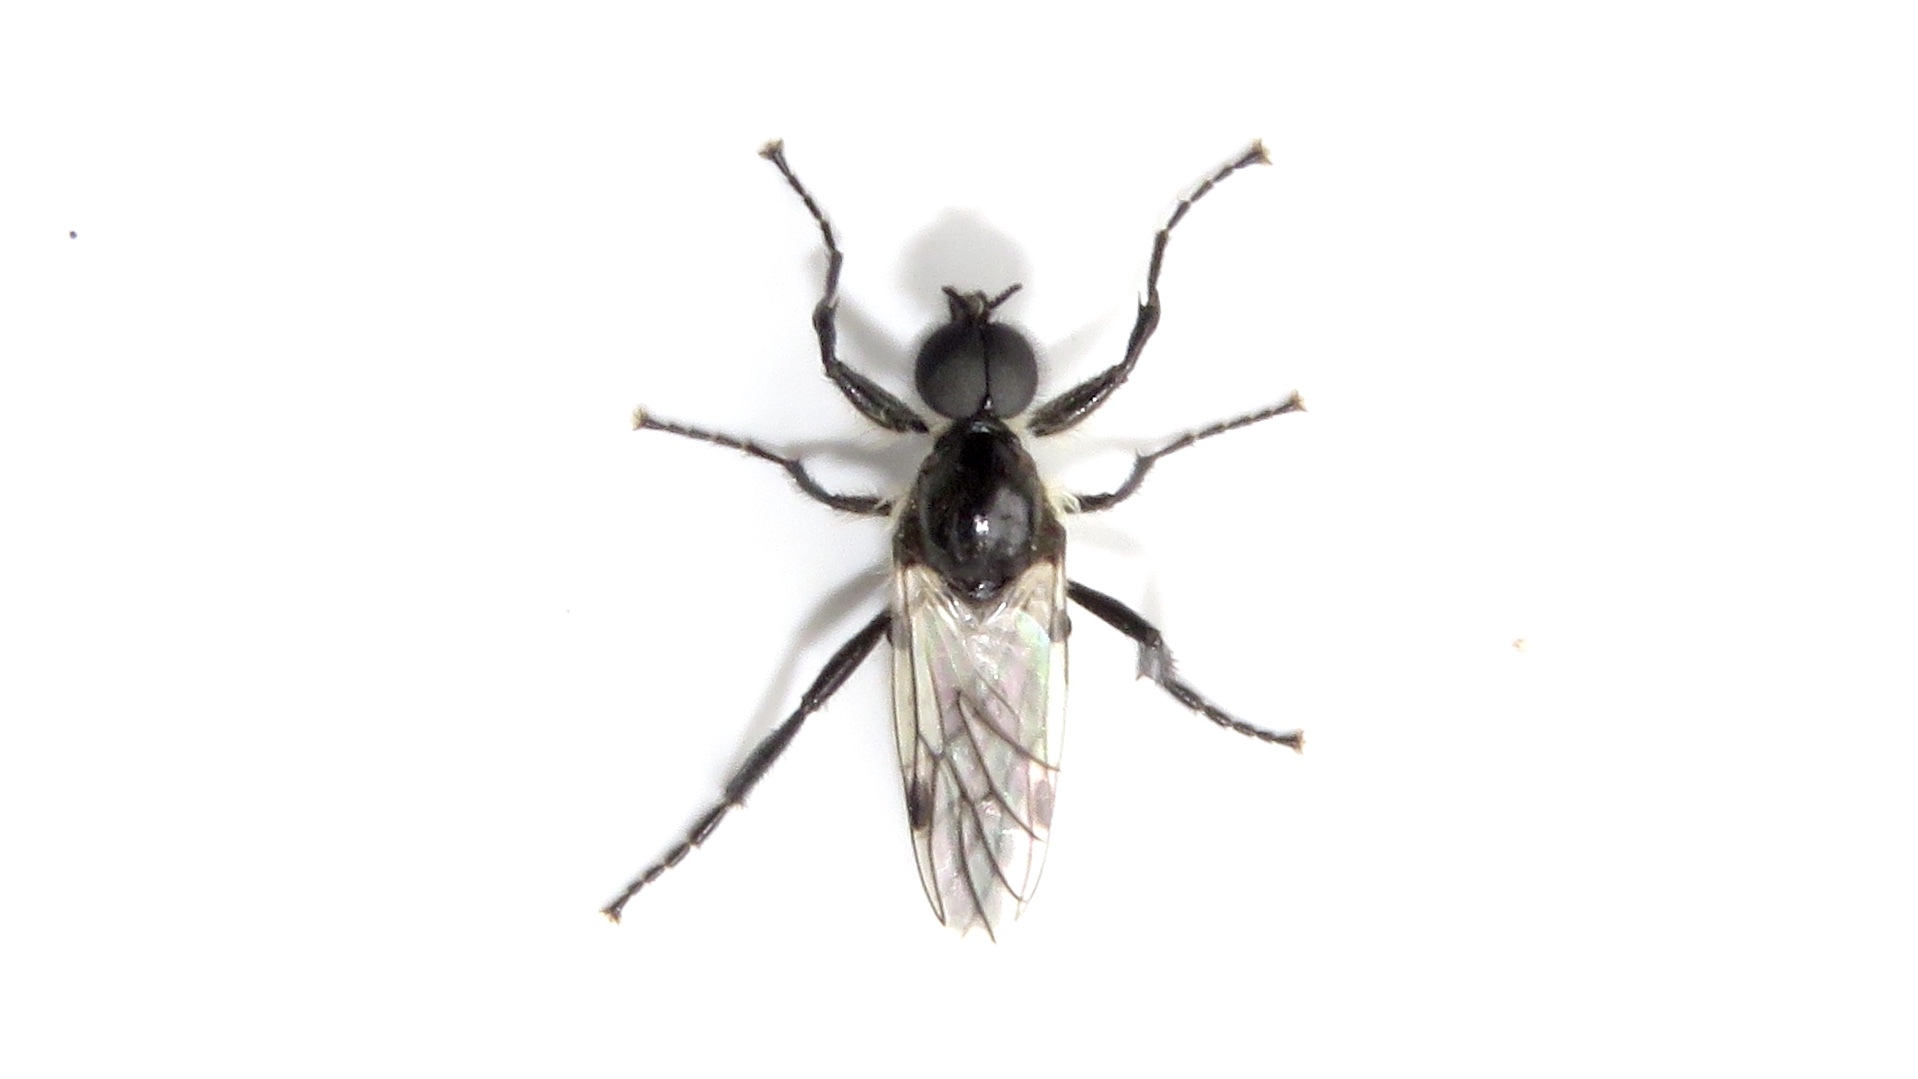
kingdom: Animalia
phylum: Arthropoda
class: Insecta
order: Diptera
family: Bibionidae
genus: Bibio
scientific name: Bibio albipennis
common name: White-winged march fly
